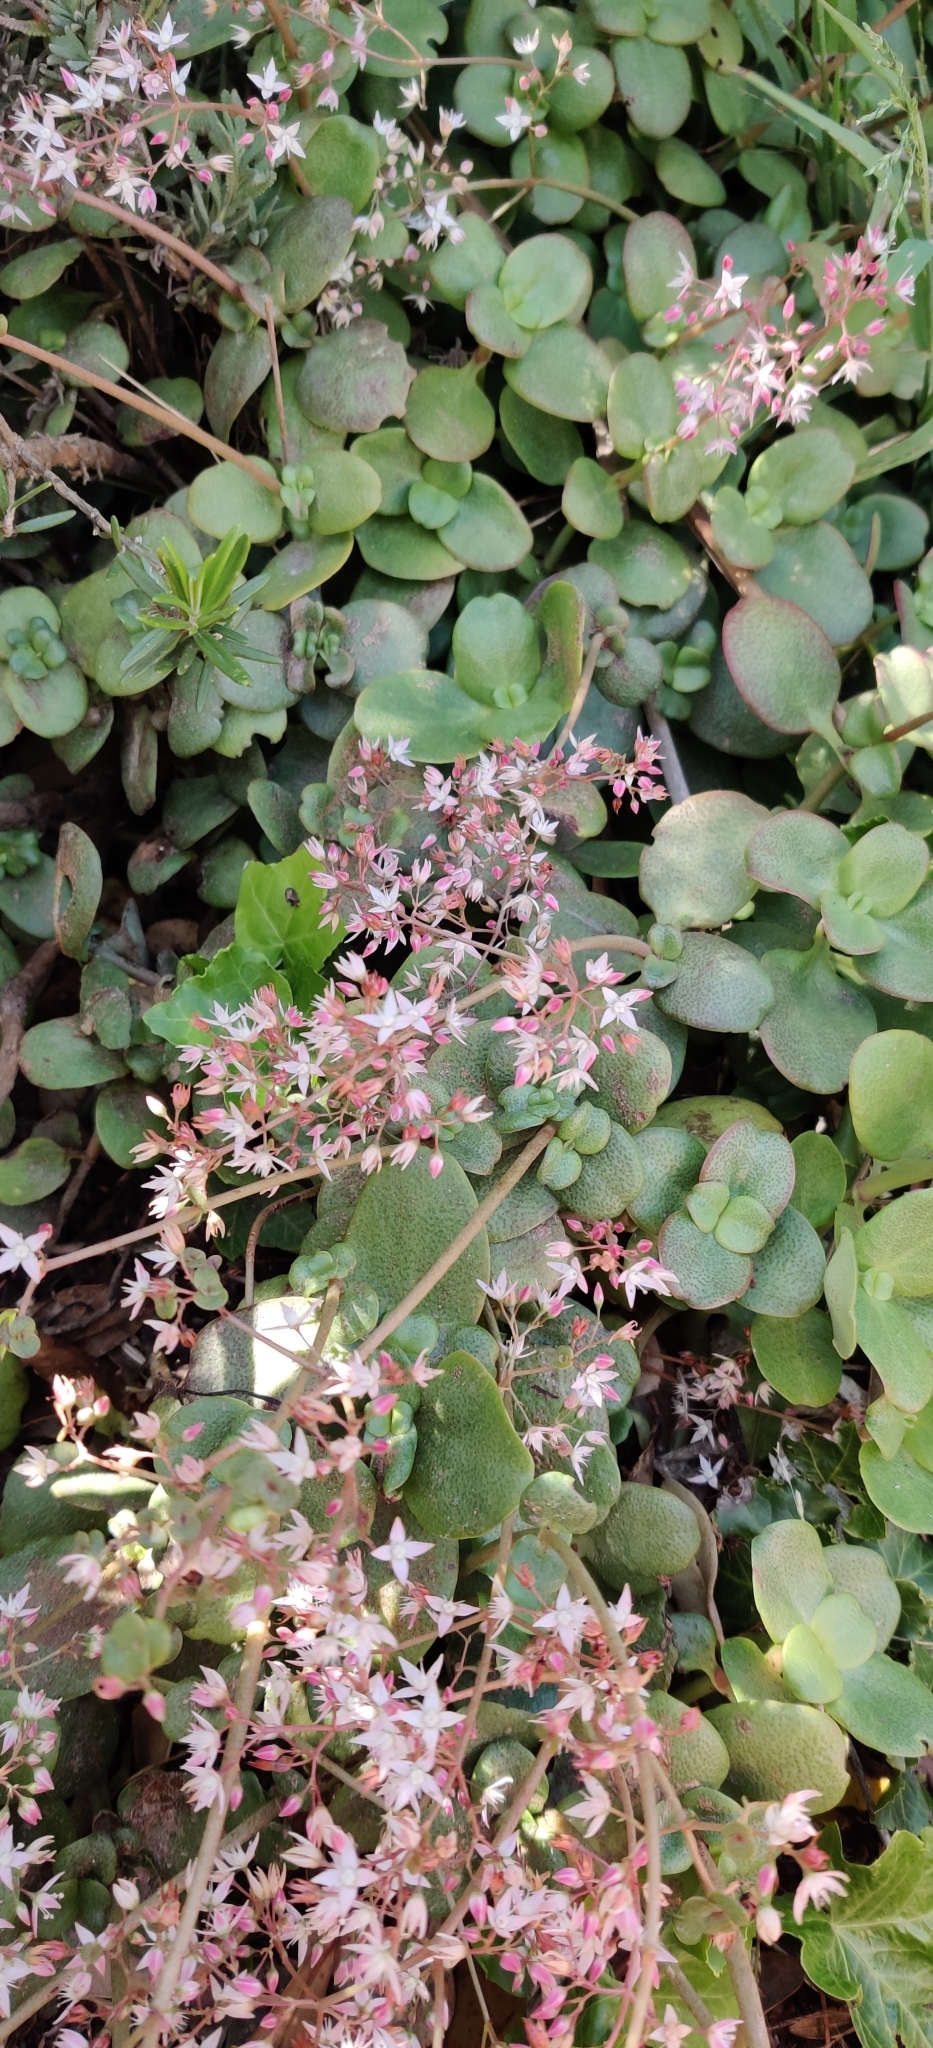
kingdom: Plantae
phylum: Tracheophyta
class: Magnoliopsida
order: Saxifragales
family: Crassulaceae
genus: Crassula
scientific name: Crassula multicava
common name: Cape province pygmyweed
